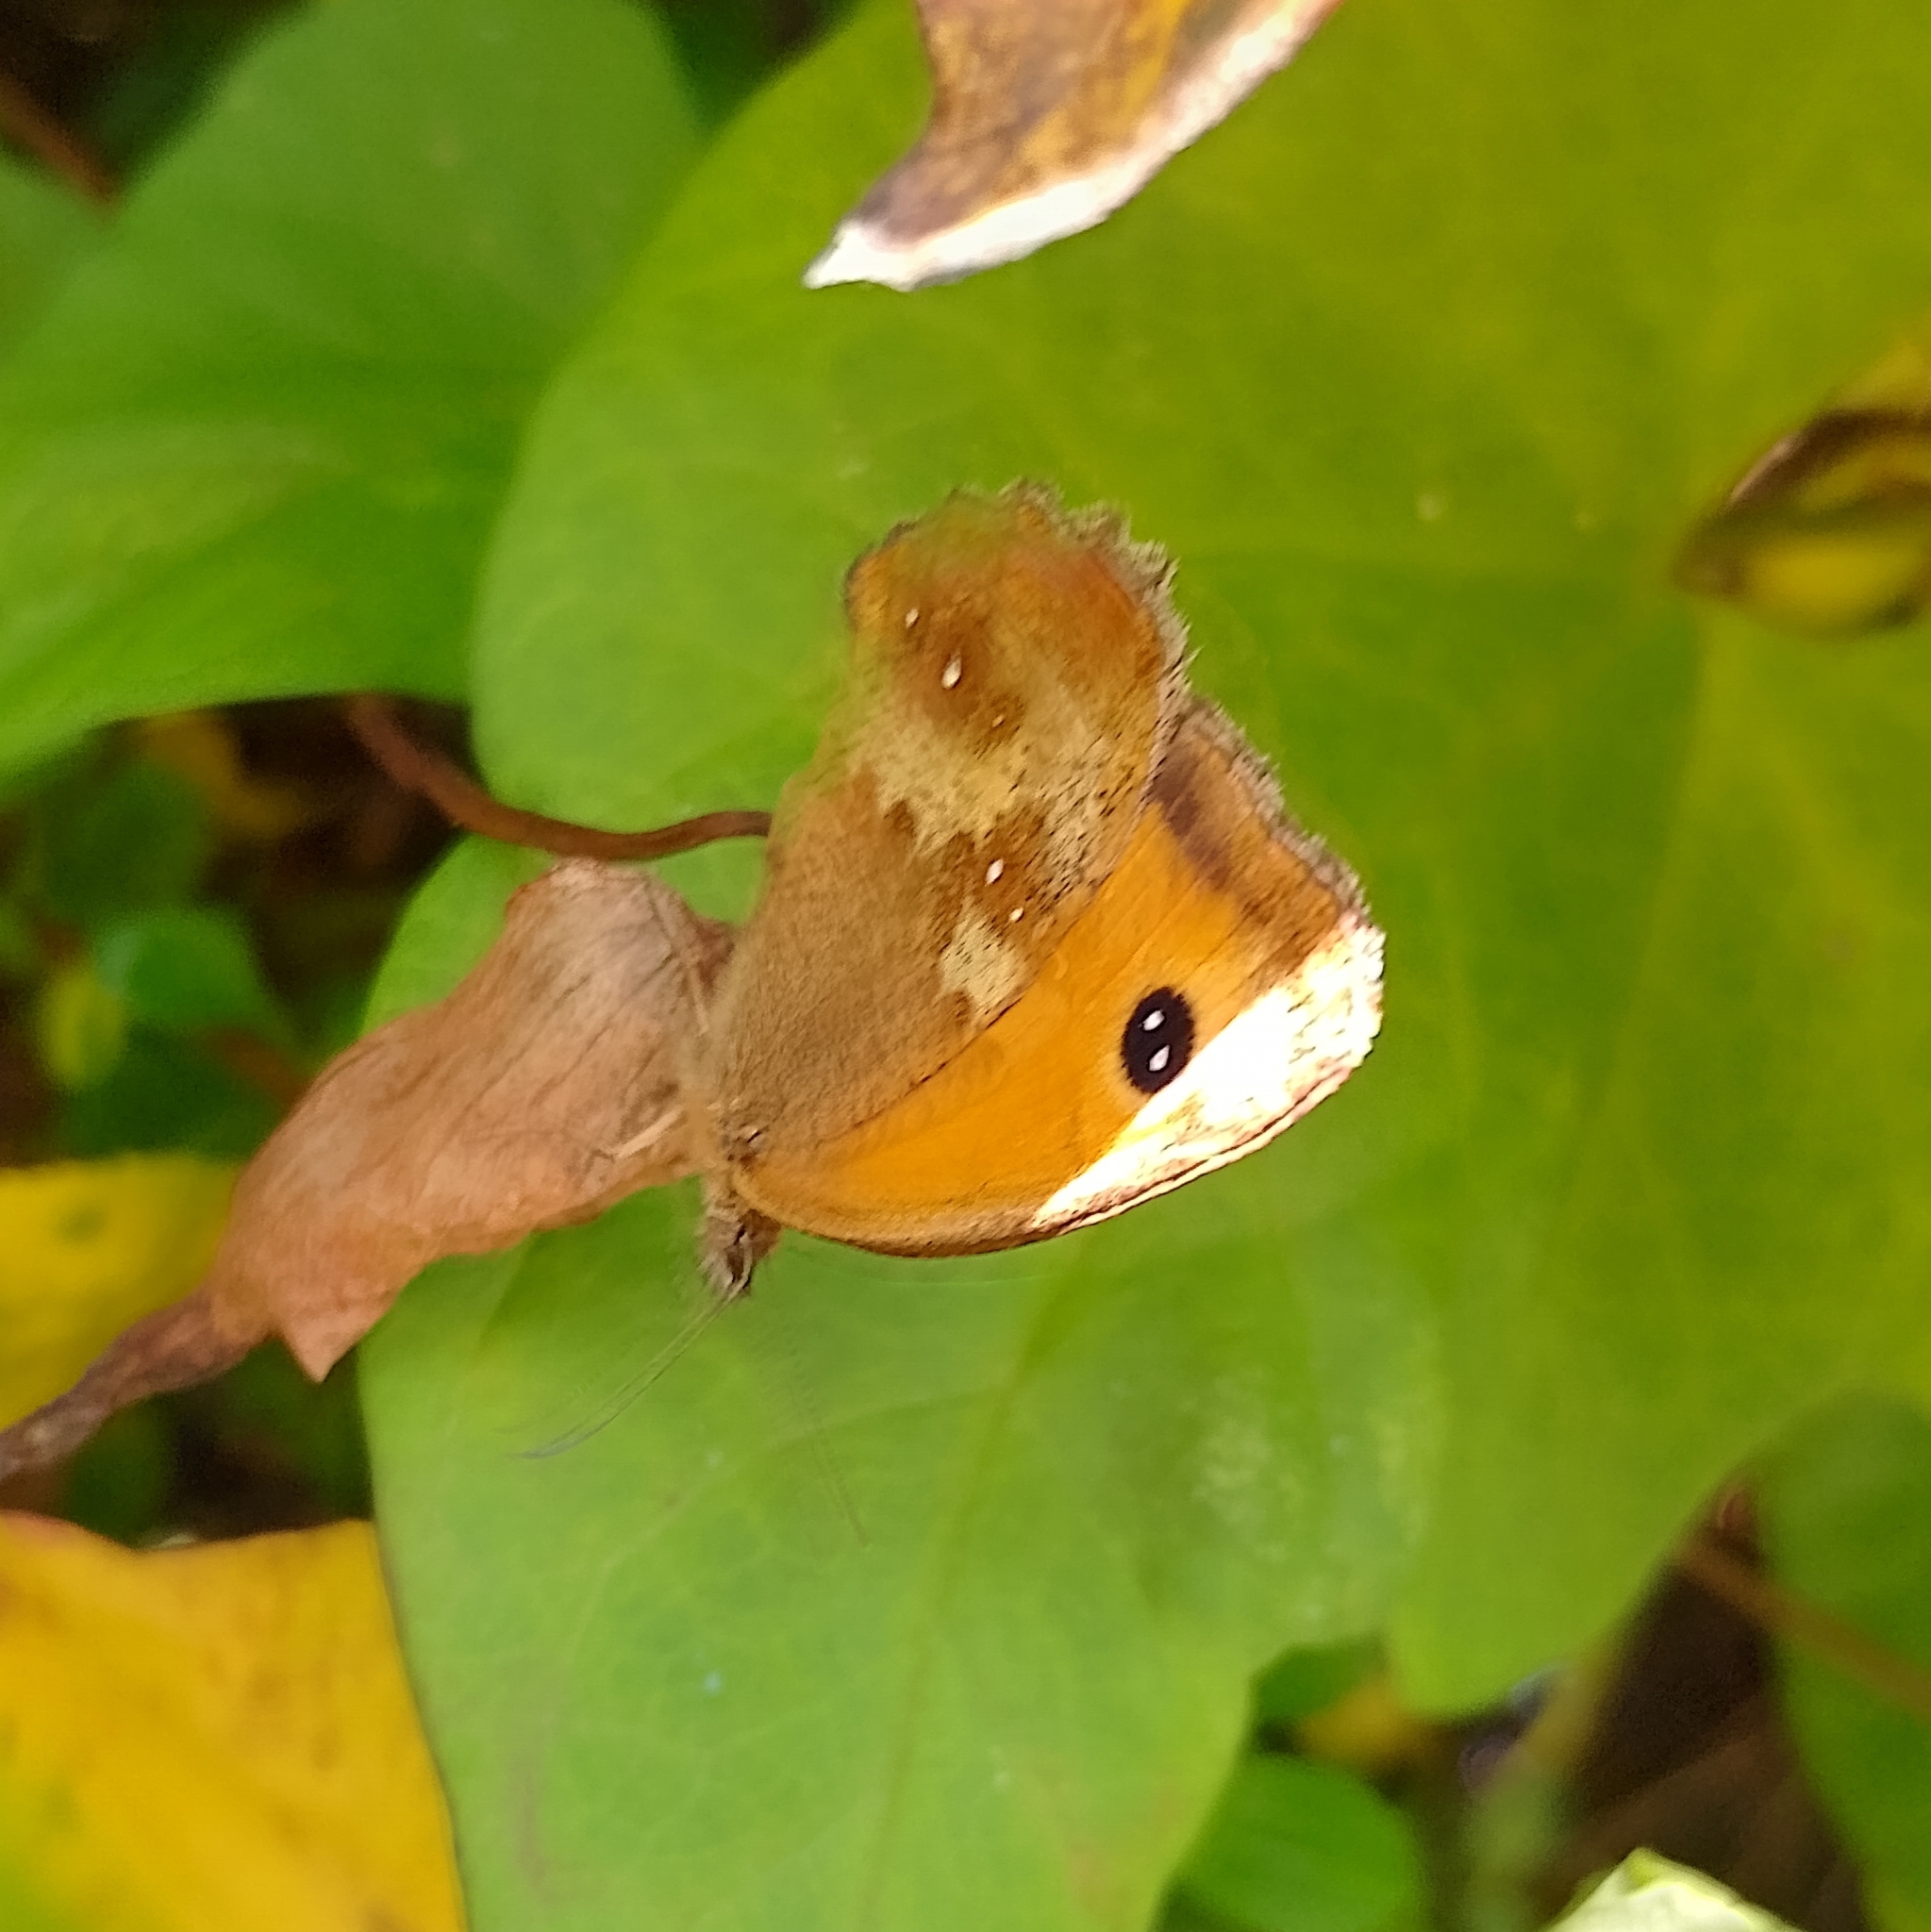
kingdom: Animalia
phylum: Arthropoda
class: Insecta
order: Lepidoptera
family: Nymphalidae
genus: Pyronia
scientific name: Pyronia tithonus
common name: Gatekeeper
